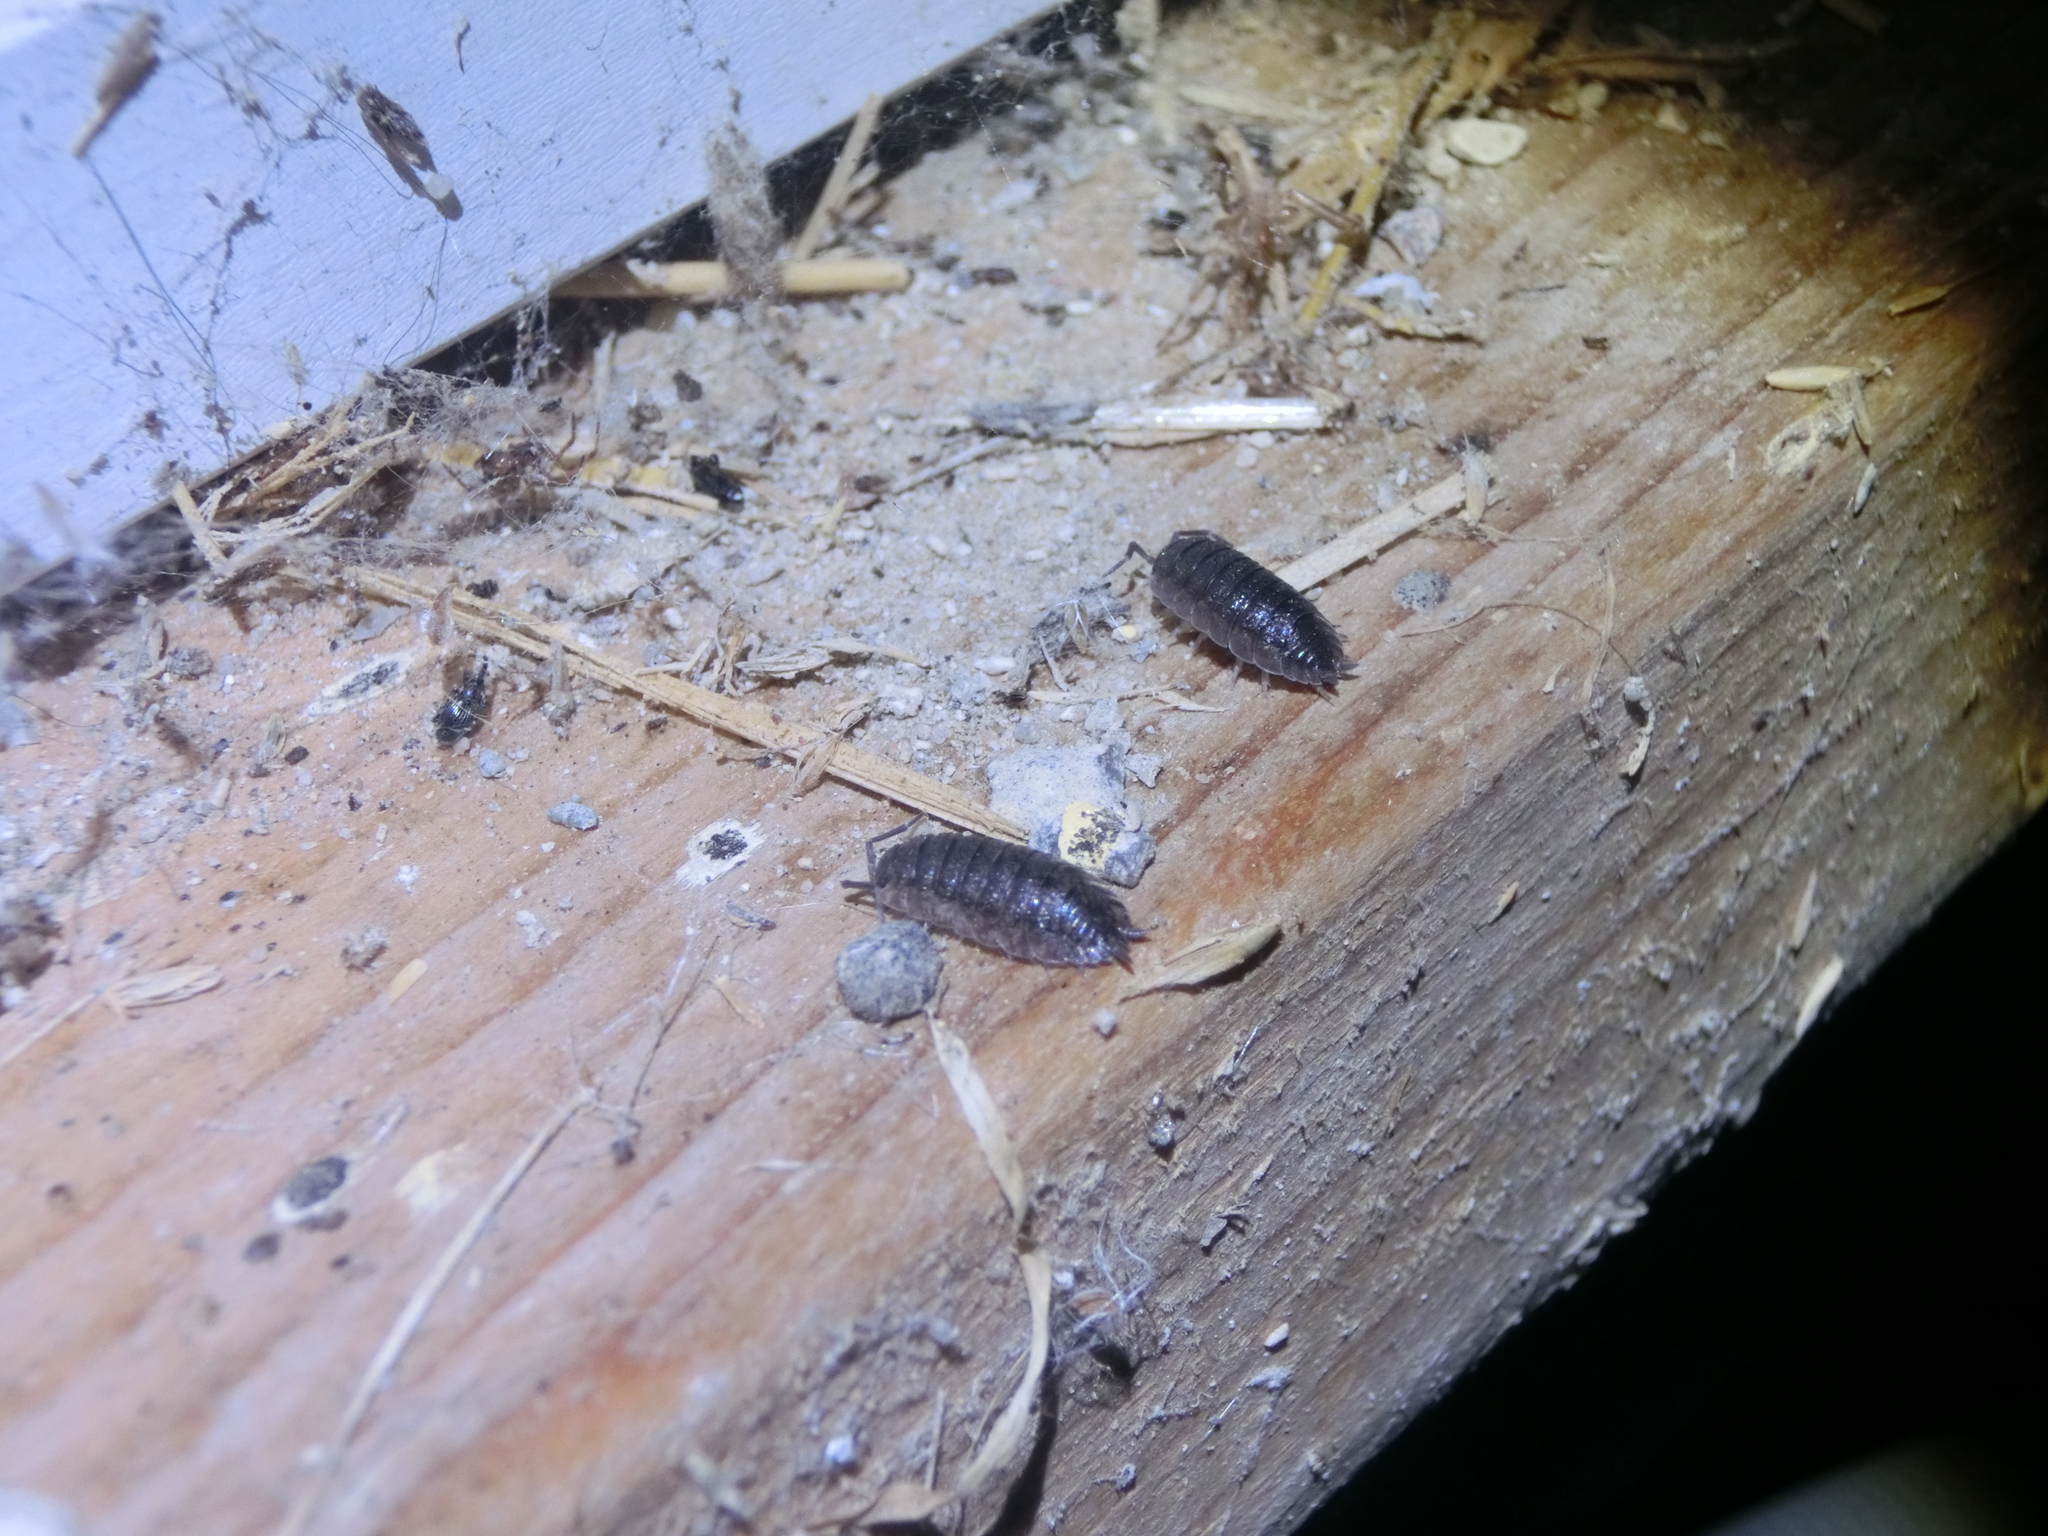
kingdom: Animalia
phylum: Arthropoda
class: Malacostraca
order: Isopoda
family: Porcellionidae
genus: Porcellio
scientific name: Porcellio scaber
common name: Common rough woodlouse
